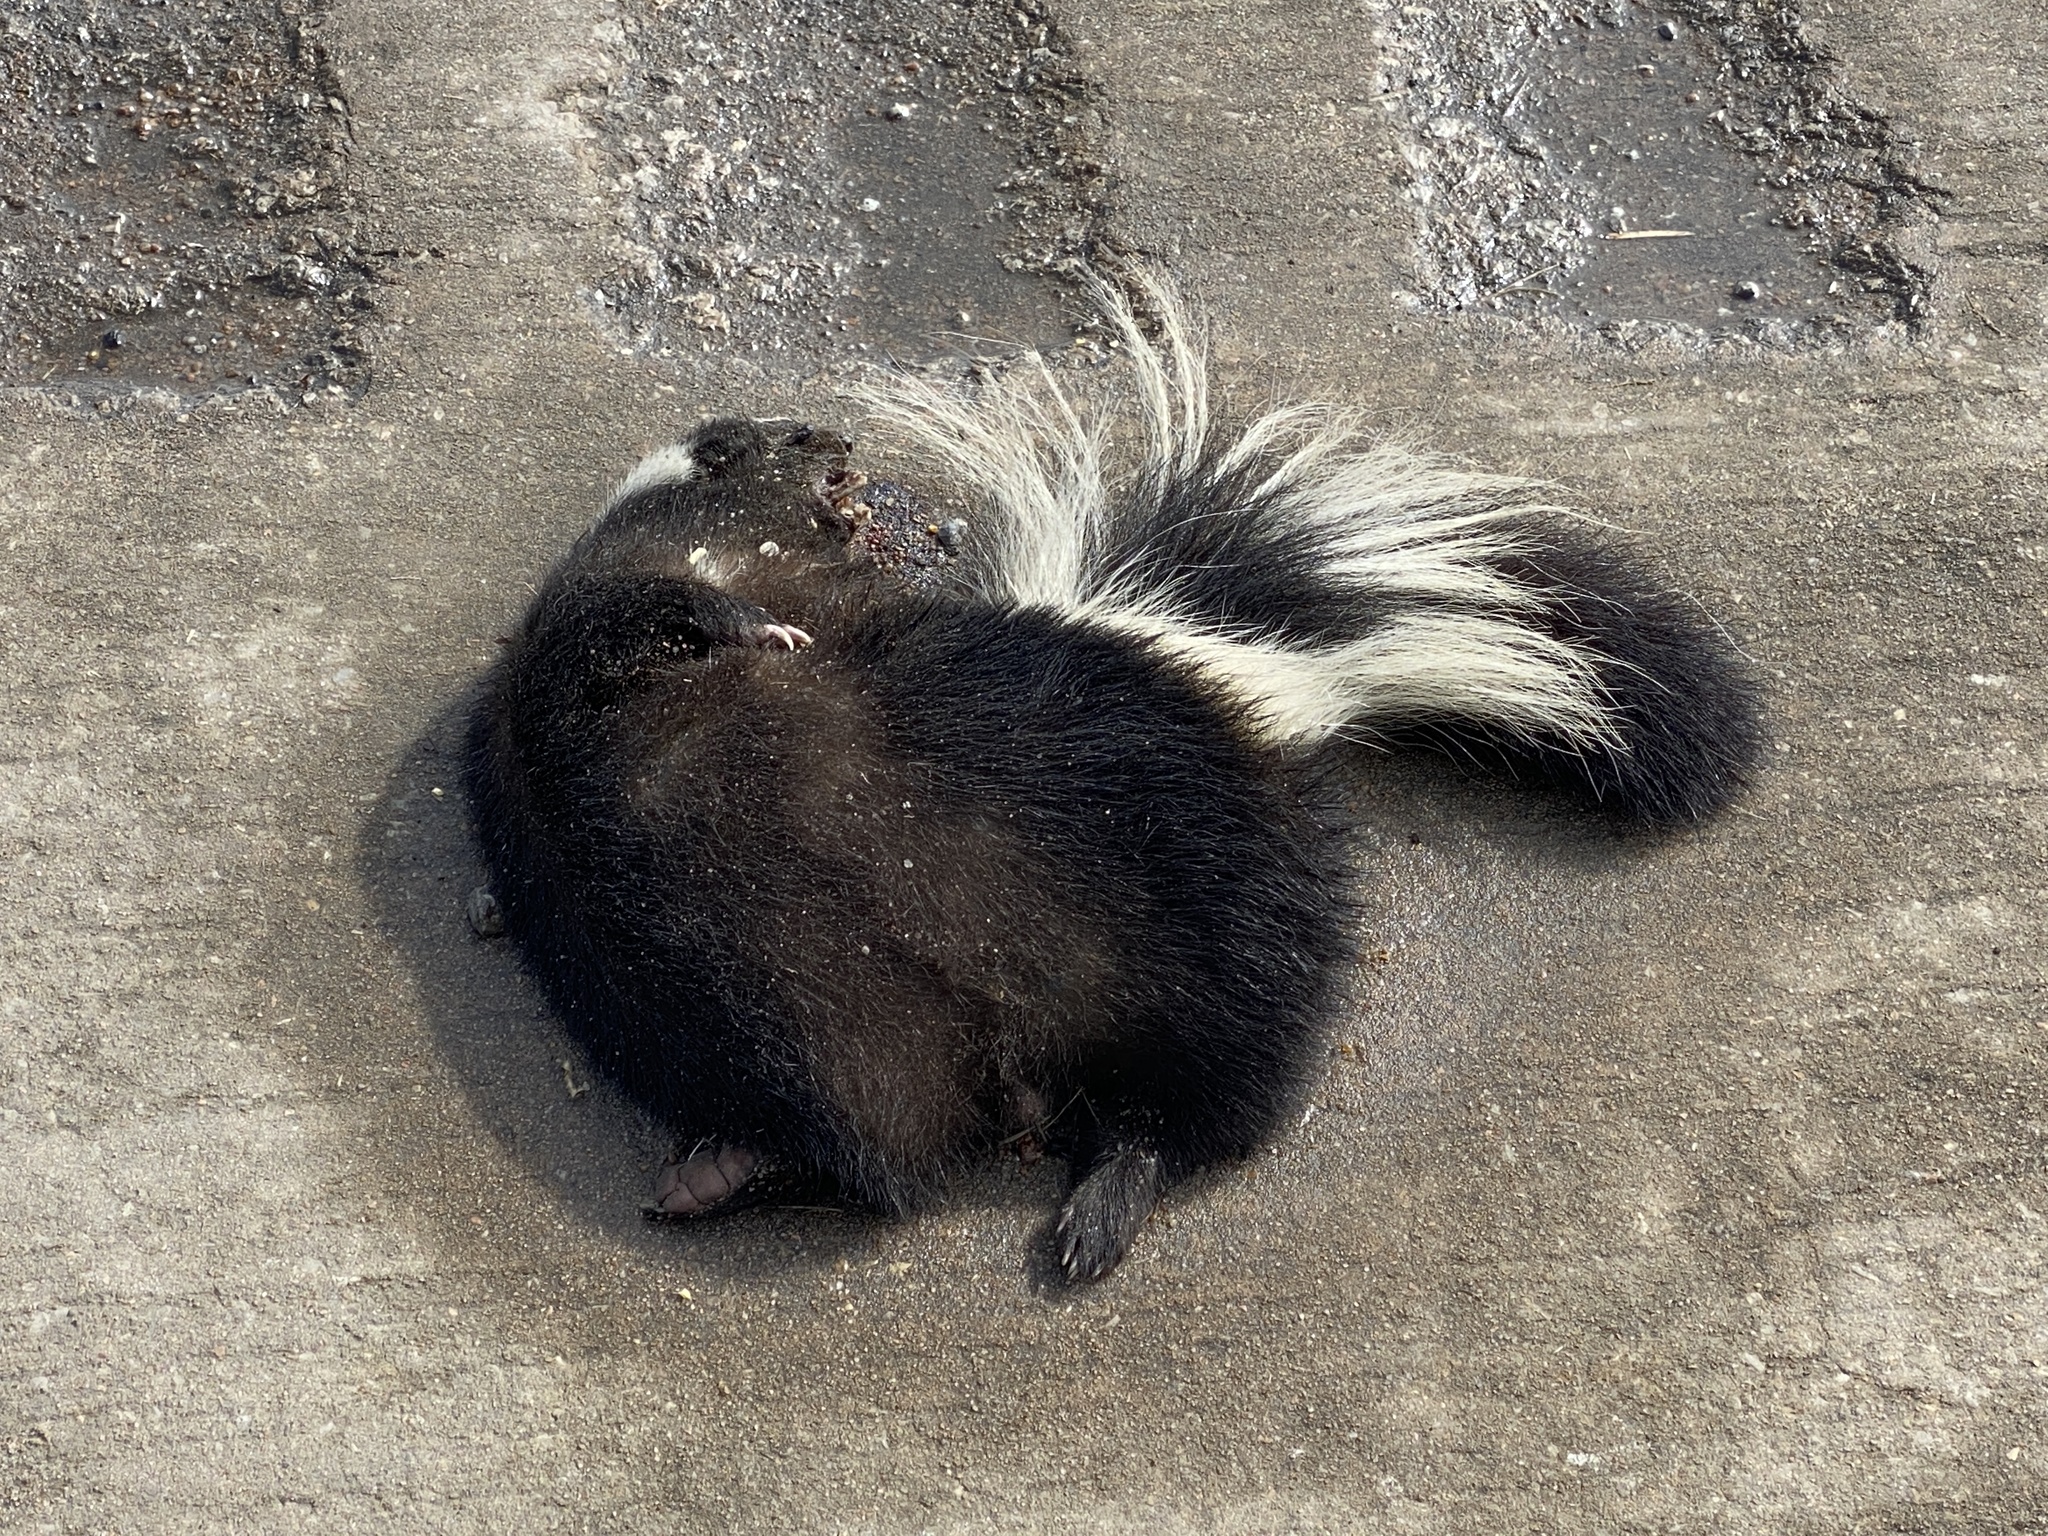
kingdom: Animalia
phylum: Chordata
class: Mammalia
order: Carnivora
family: Mephitidae
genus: Mephitis
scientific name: Mephitis mephitis
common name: Striped skunk
